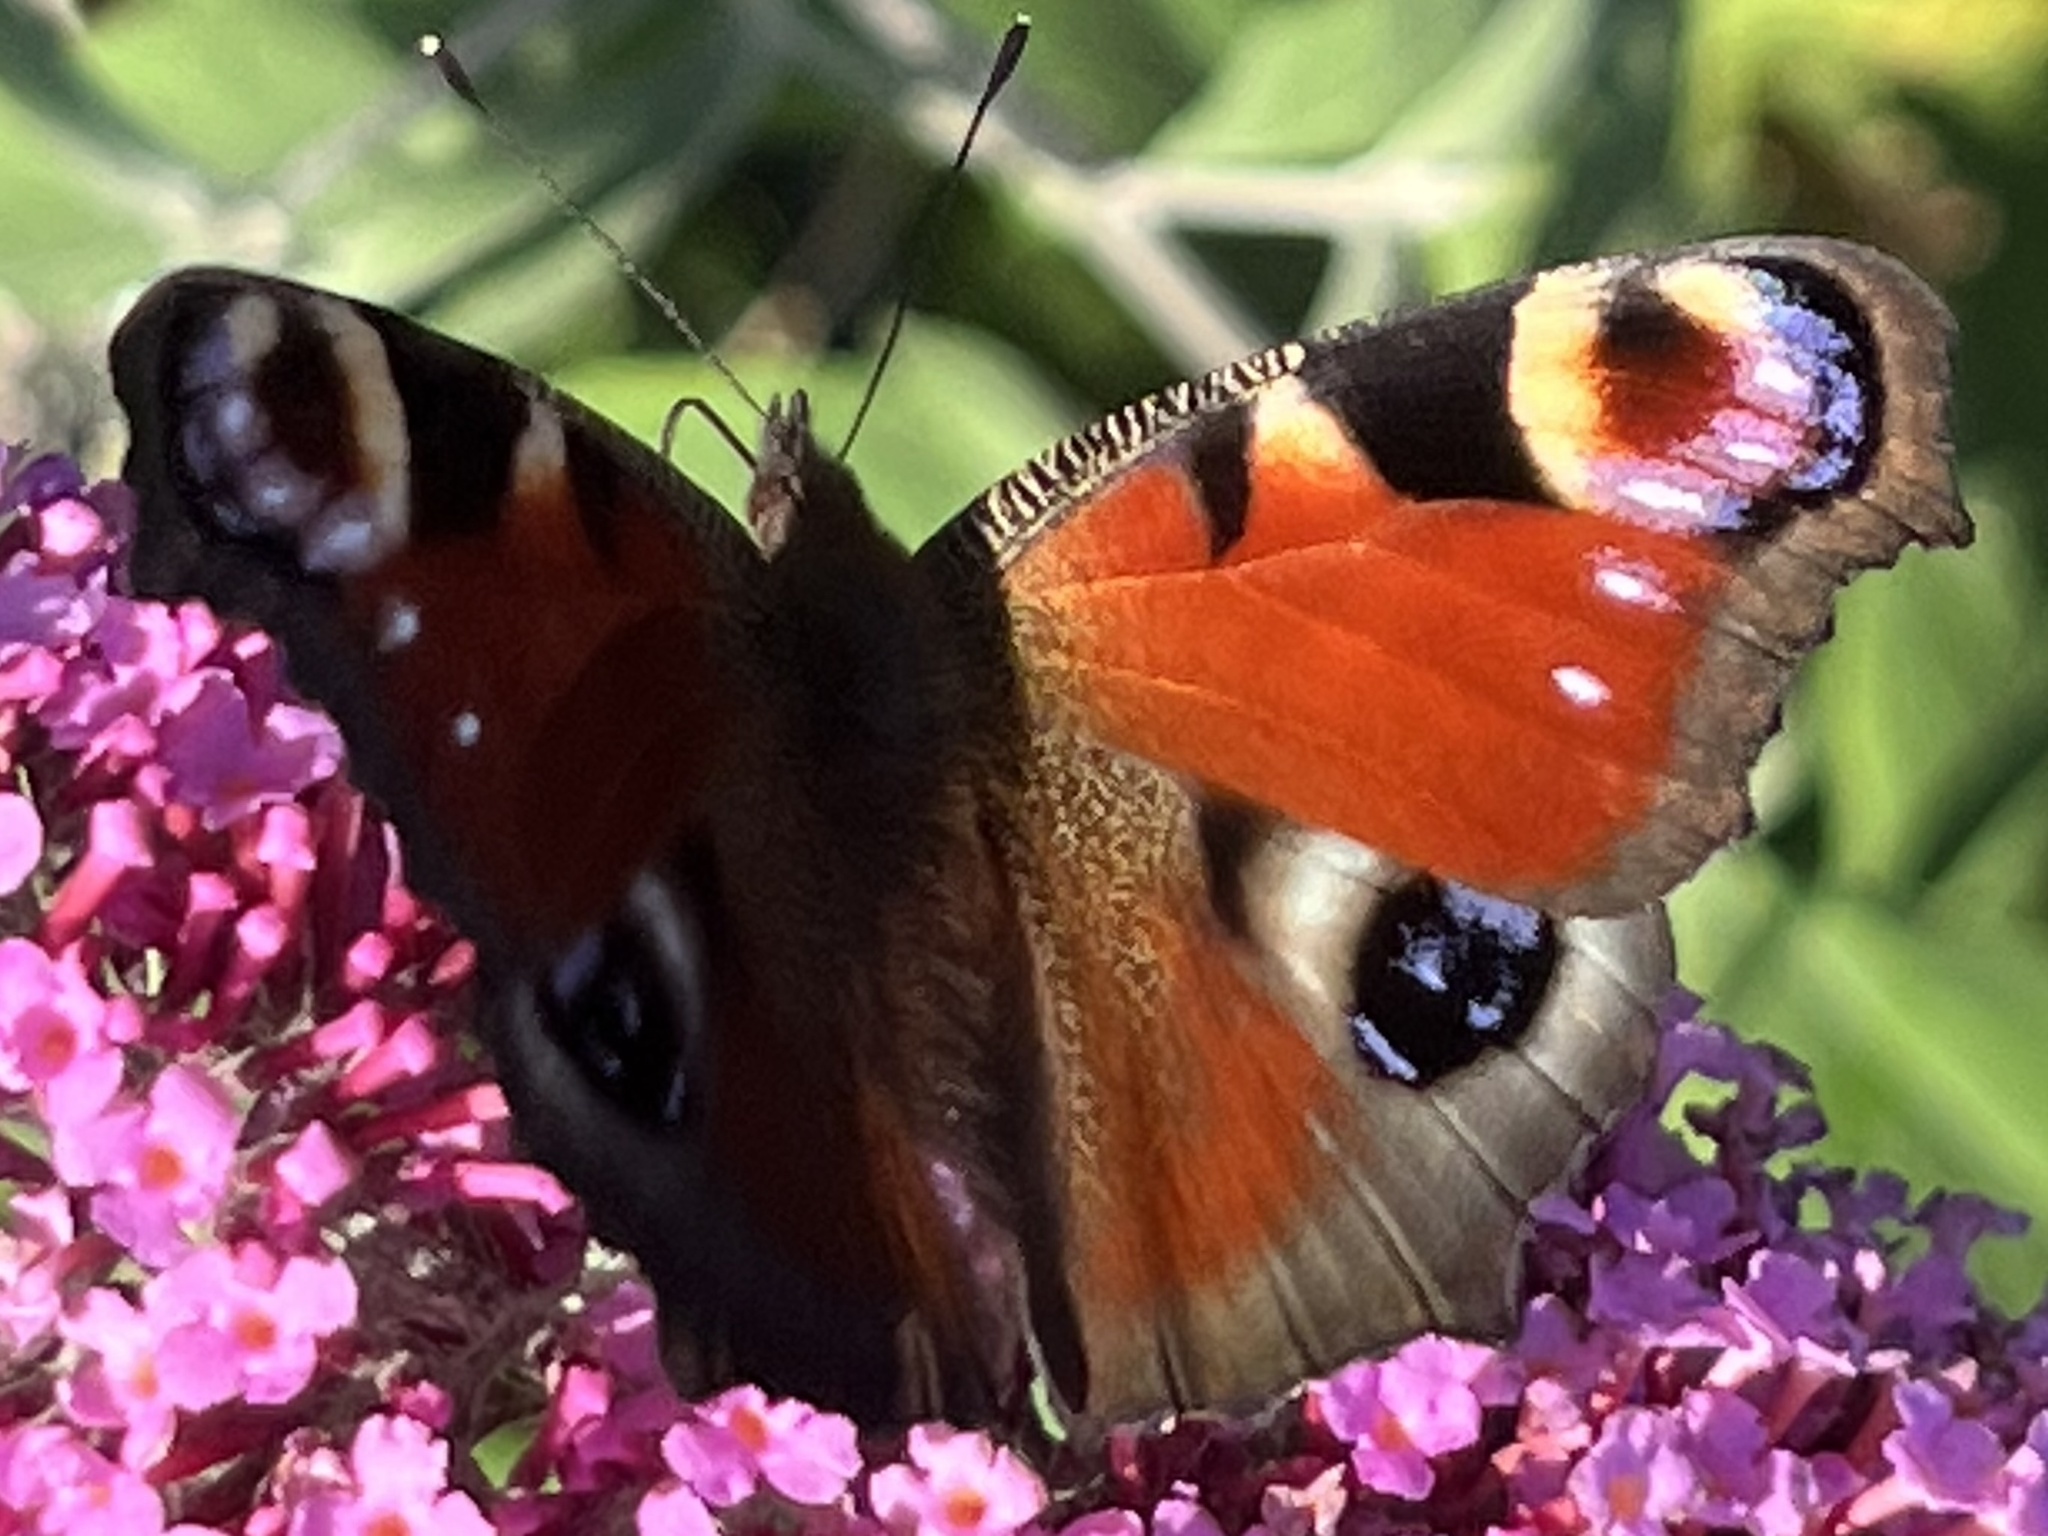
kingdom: Animalia
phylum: Arthropoda
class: Insecta
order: Lepidoptera
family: Nymphalidae
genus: Aglais
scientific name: Aglais io
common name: Peacock
